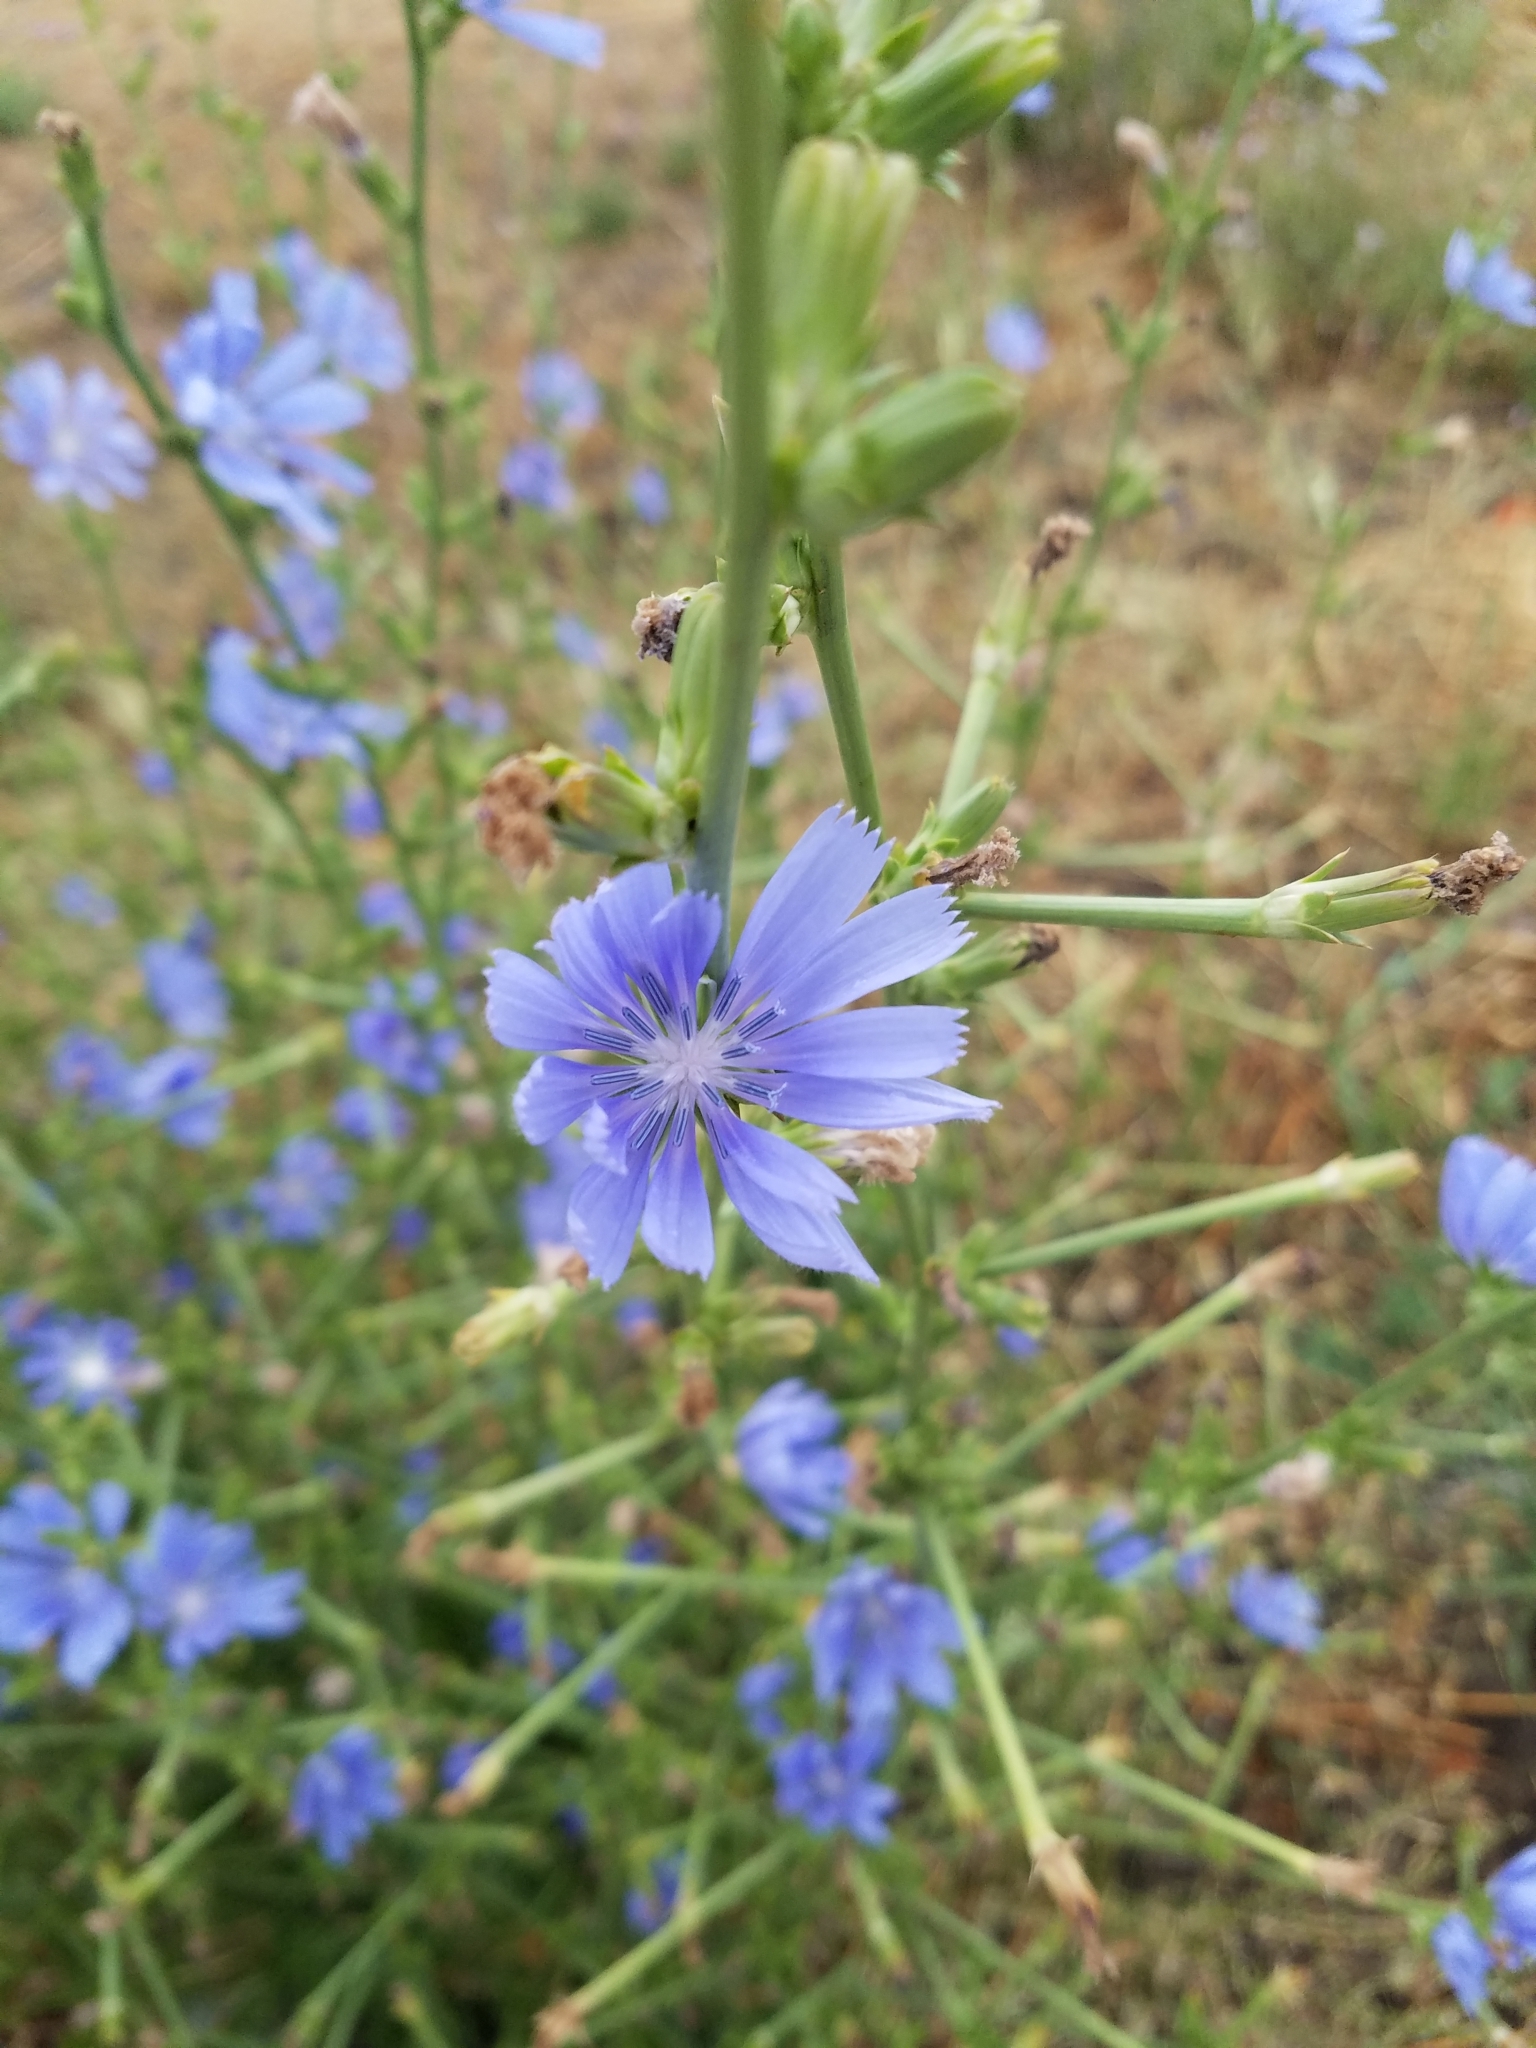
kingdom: Plantae
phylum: Tracheophyta
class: Magnoliopsida
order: Asterales
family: Asteraceae
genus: Cichorium
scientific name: Cichorium intybus
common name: Chicory
